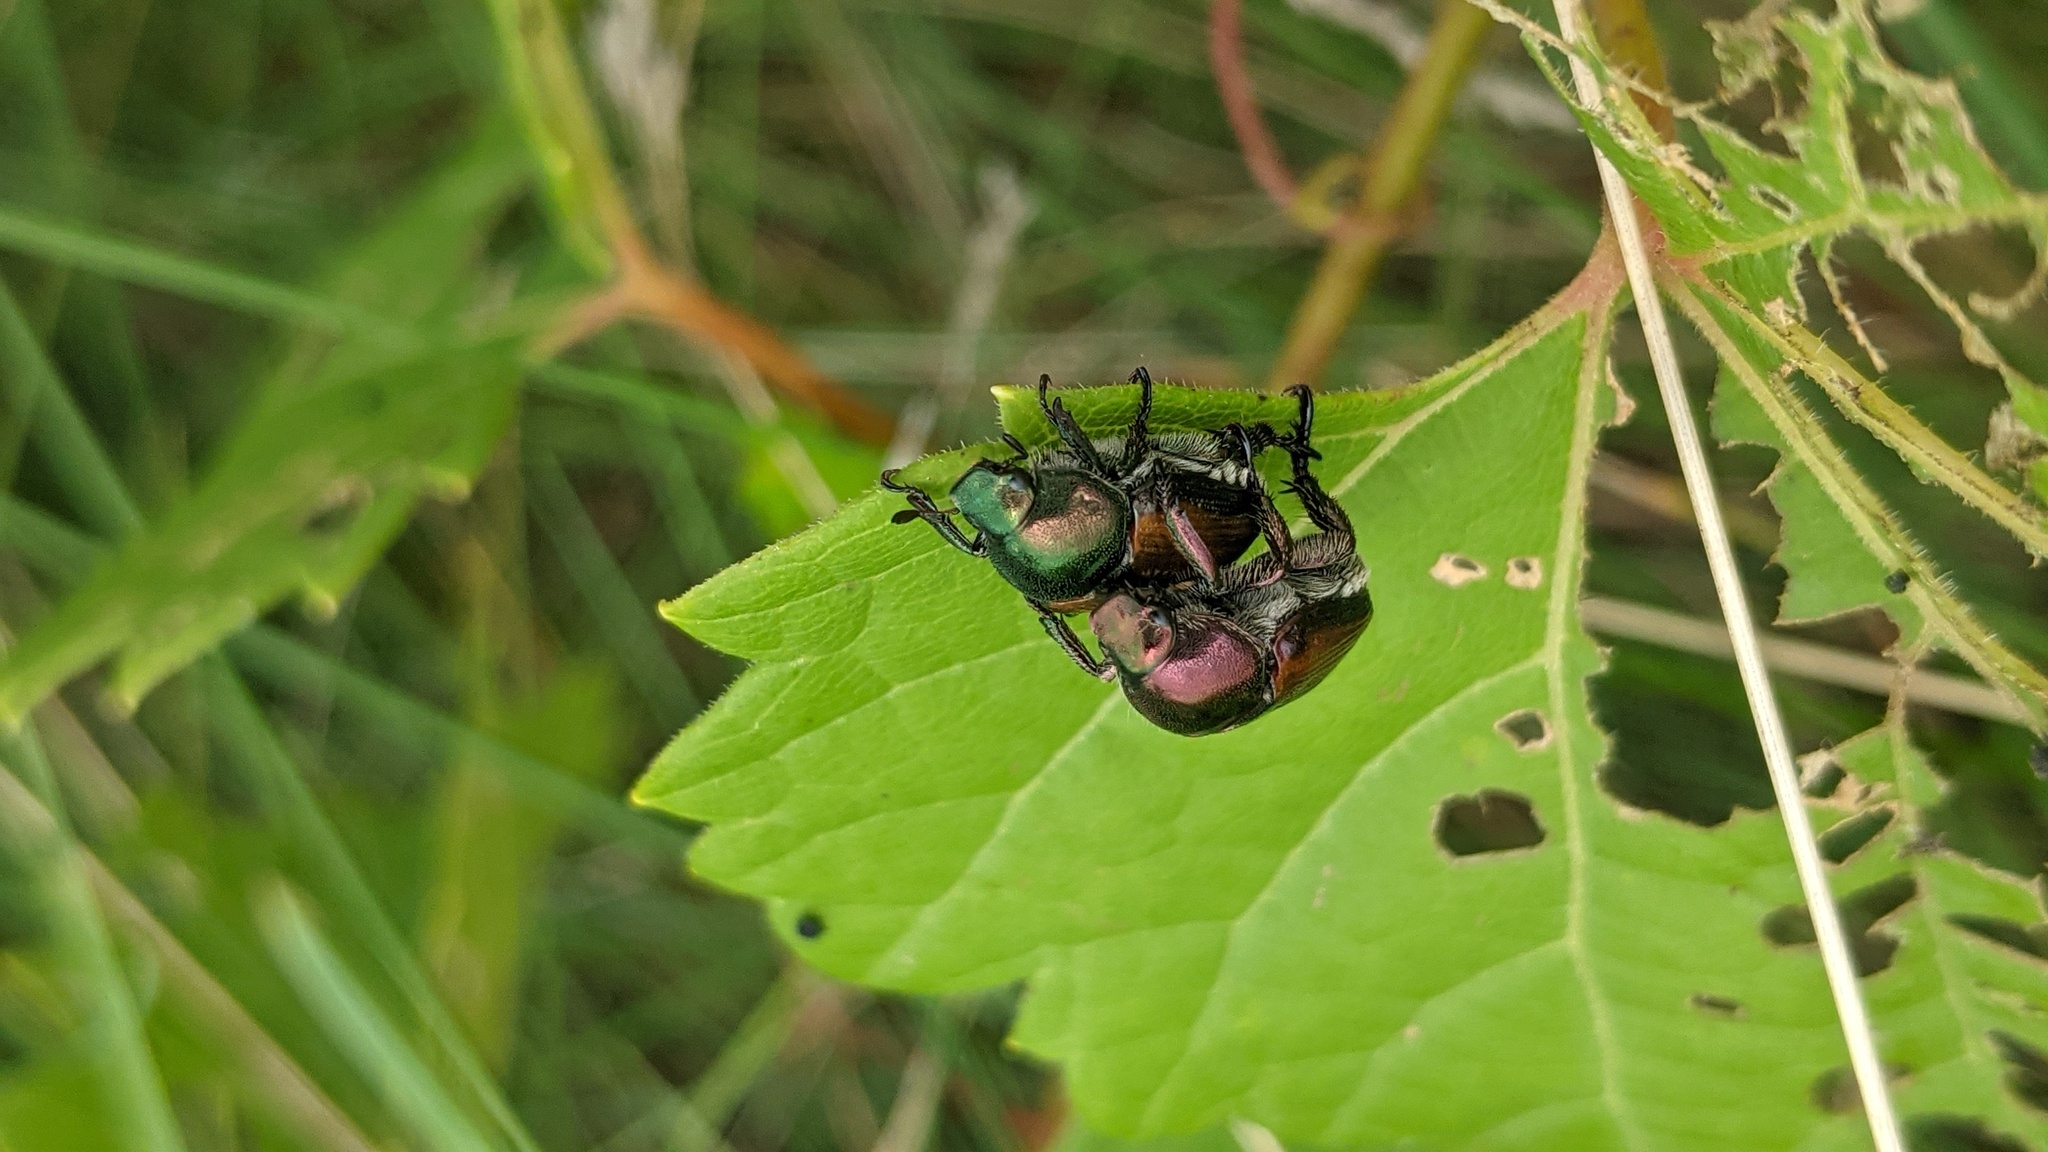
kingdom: Animalia
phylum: Arthropoda
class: Insecta
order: Coleoptera
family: Scarabaeidae
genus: Popillia
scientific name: Popillia japonica
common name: Japanese beetle
